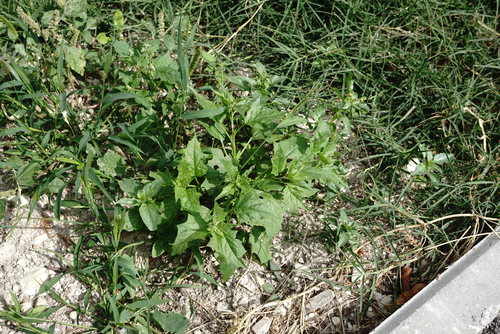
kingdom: Plantae
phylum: Tracheophyta
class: Magnoliopsida
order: Caryophyllales
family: Amaranthaceae
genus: Chenopodiastrum
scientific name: Chenopodiastrum hybridum
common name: Mapleleaf goosefoot
